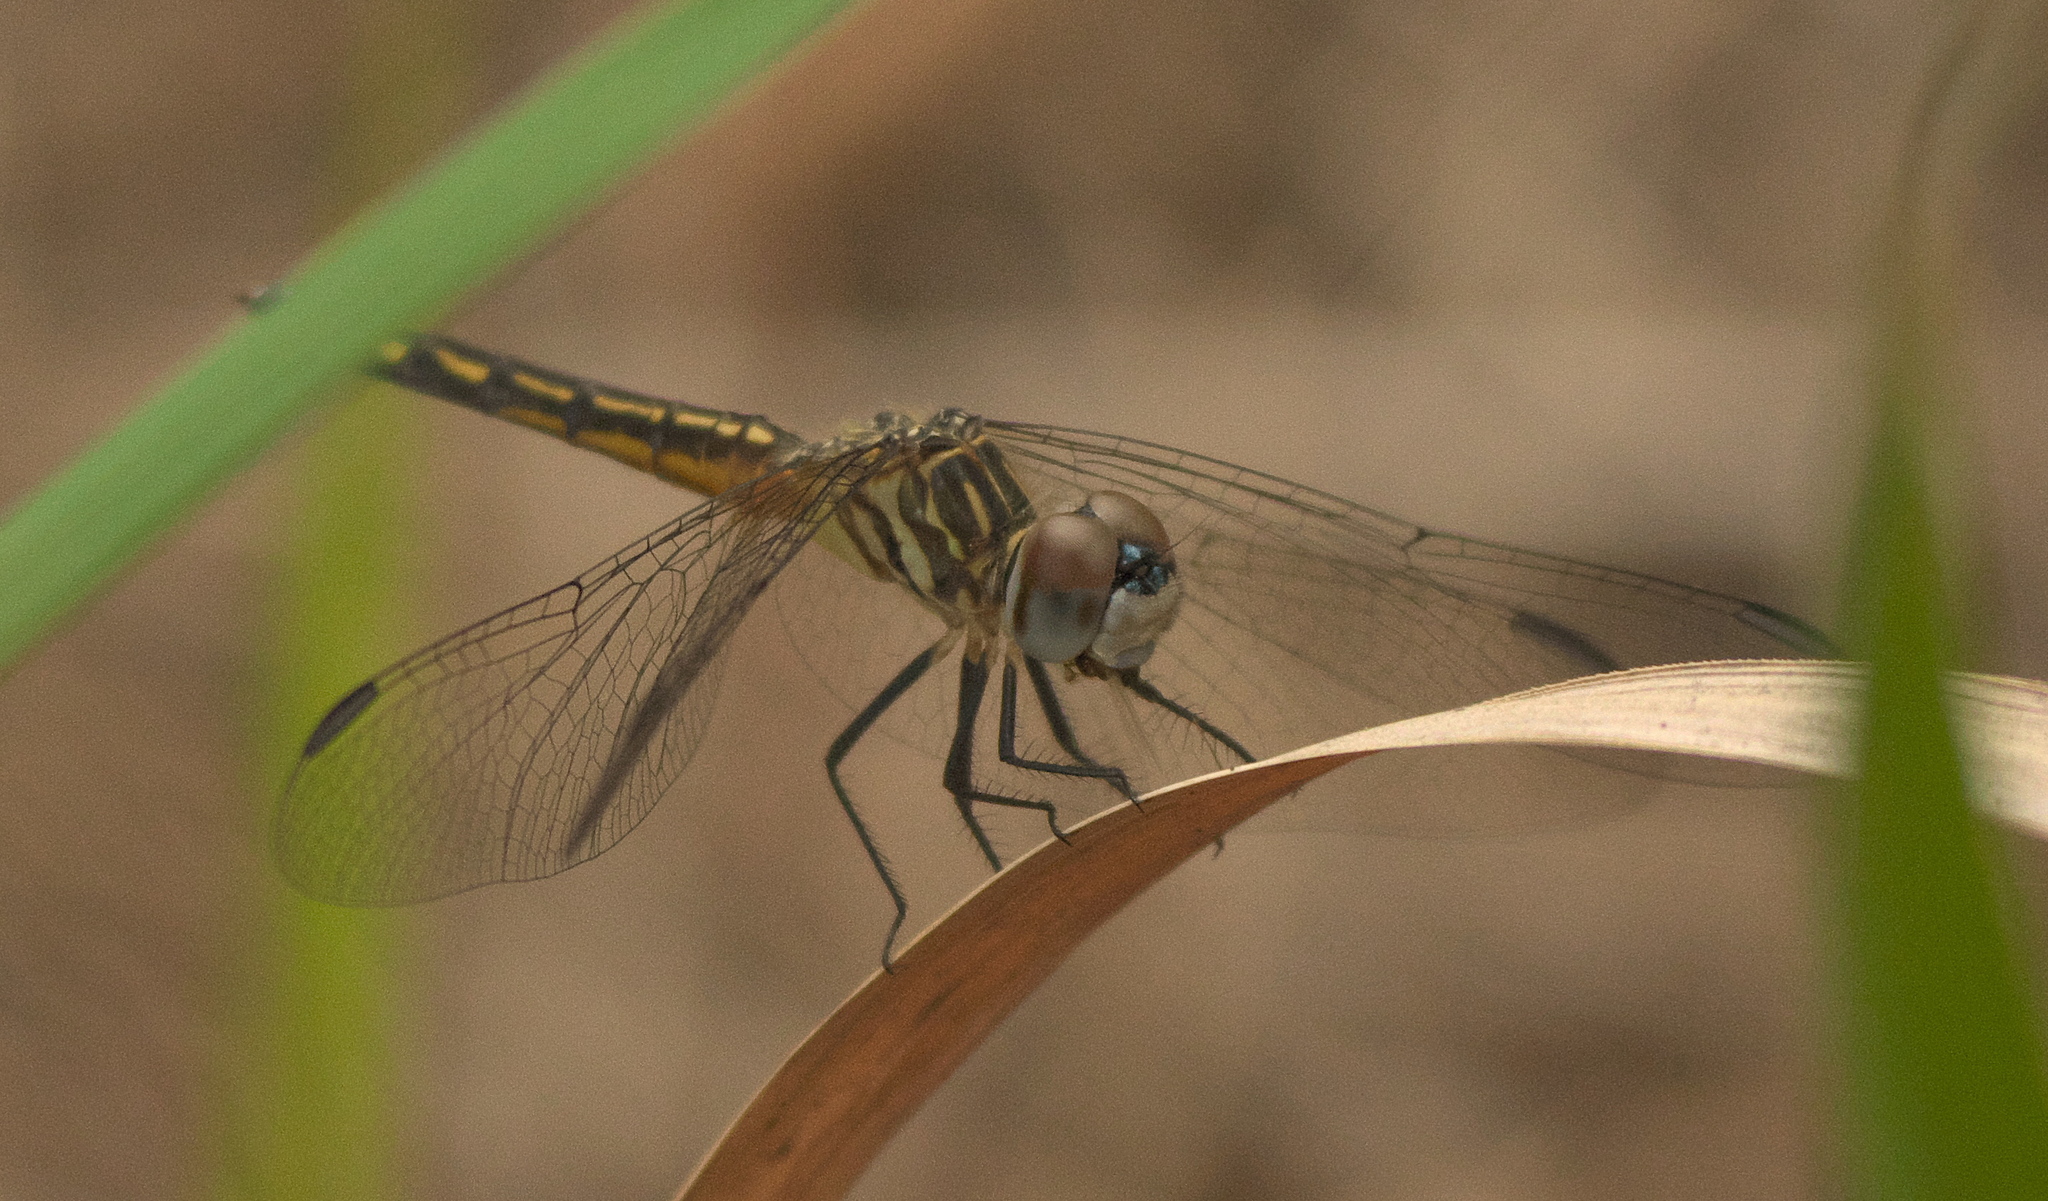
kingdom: Animalia
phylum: Arthropoda
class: Insecta
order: Odonata
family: Libellulidae
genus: Pachydiplax
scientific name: Pachydiplax longipennis
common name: Blue dasher
